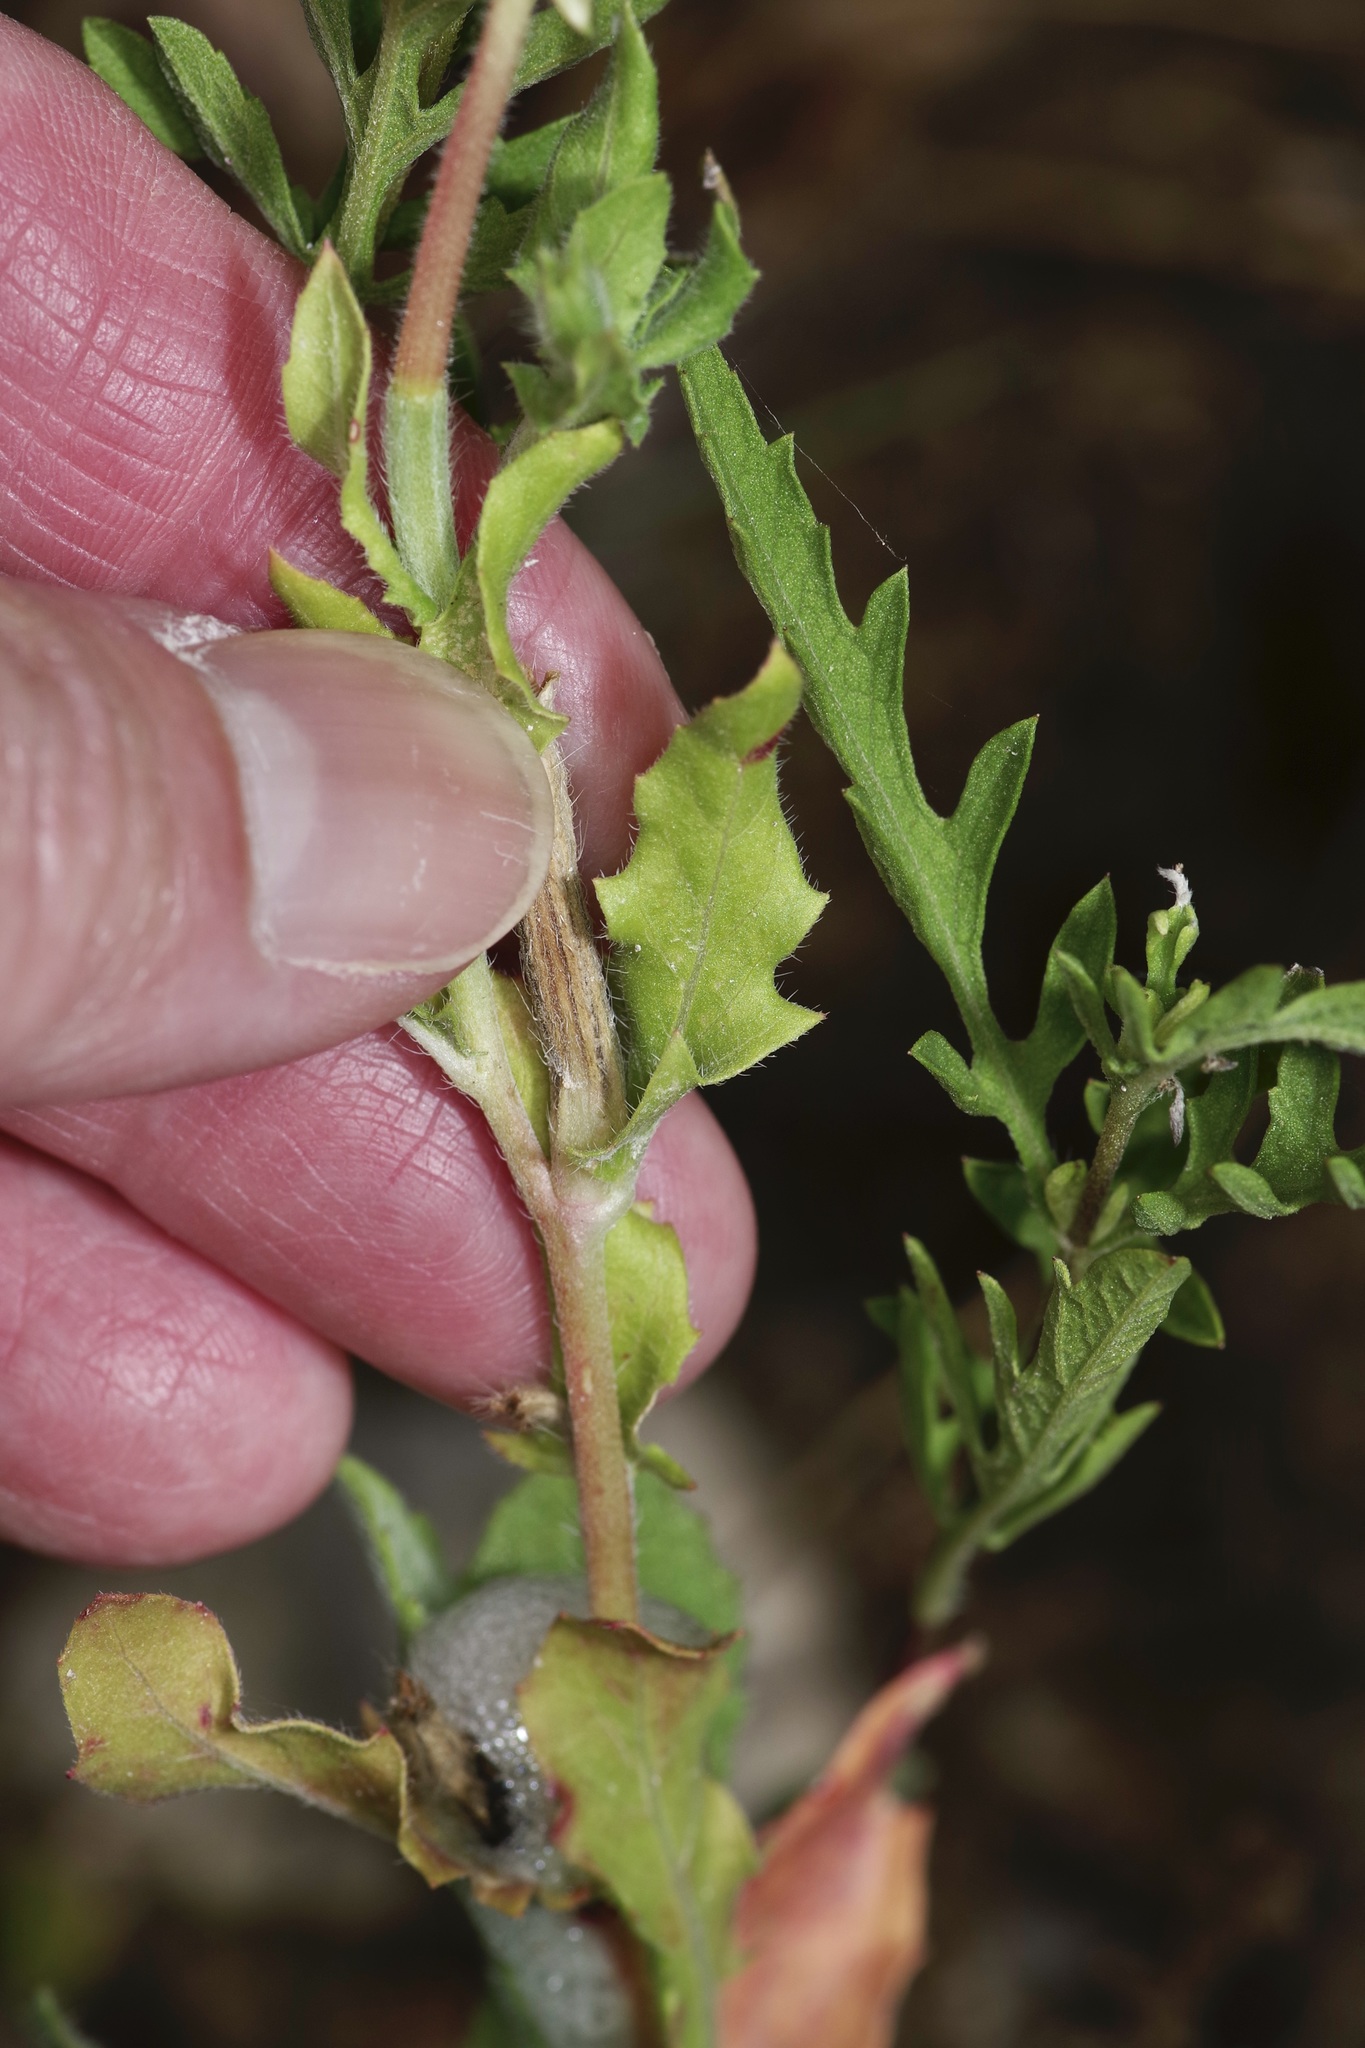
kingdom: Plantae
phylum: Tracheophyta
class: Magnoliopsida
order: Myrtales
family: Onagraceae
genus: Oenothera
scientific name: Oenothera laciniata
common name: Cut-leaved evening-primrose
